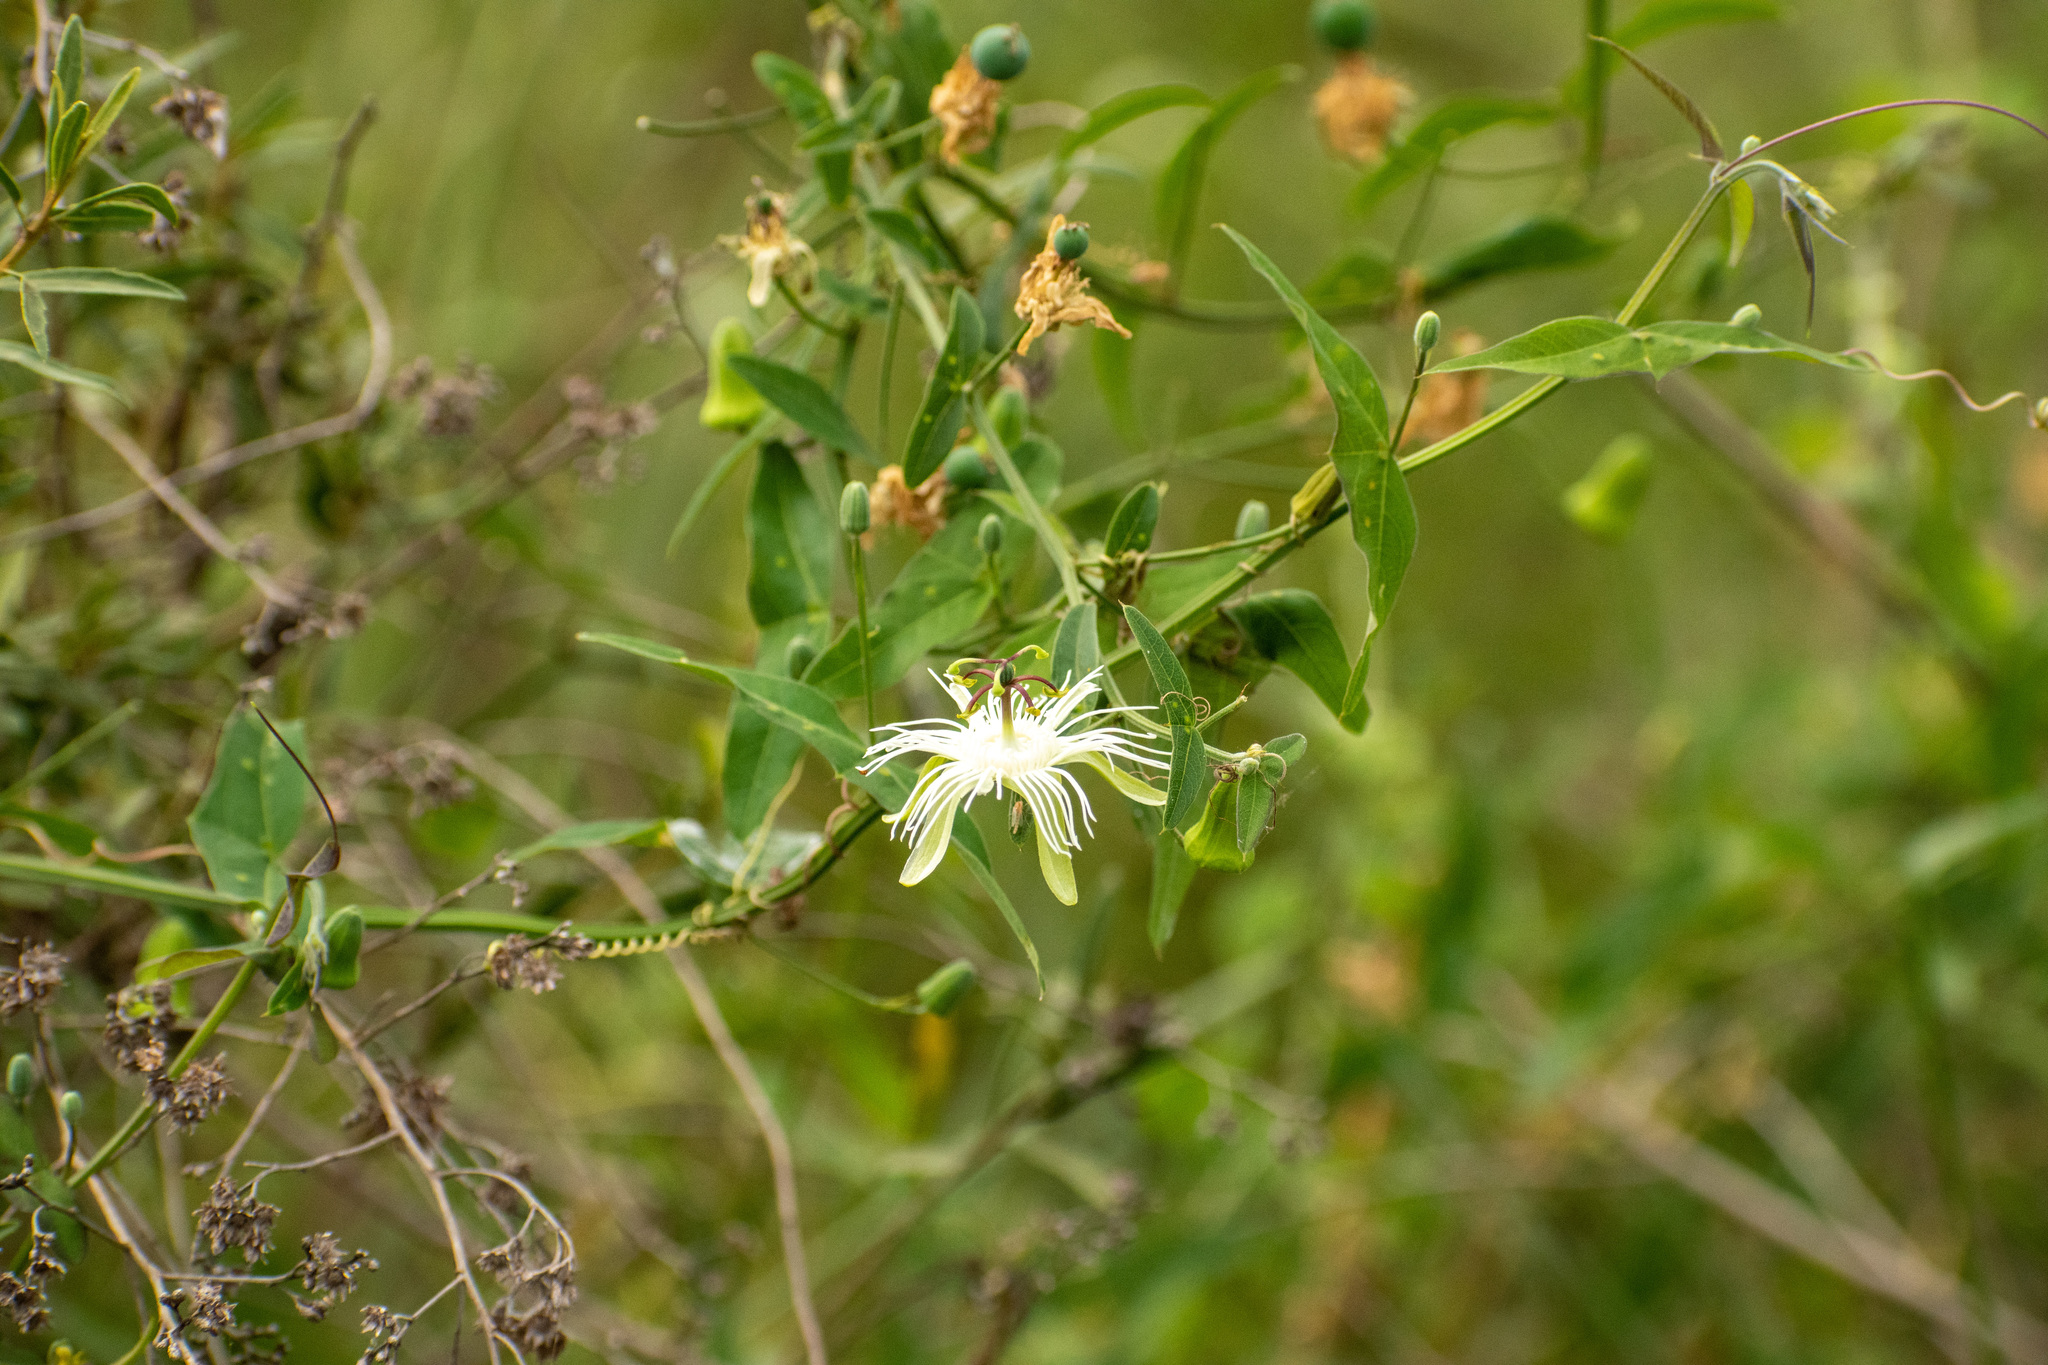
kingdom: Plantae
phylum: Tracheophyta
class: Magnoliopsida
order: Malpighiales
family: Passifloraceae
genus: Passiflora
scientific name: Passiflora misera
